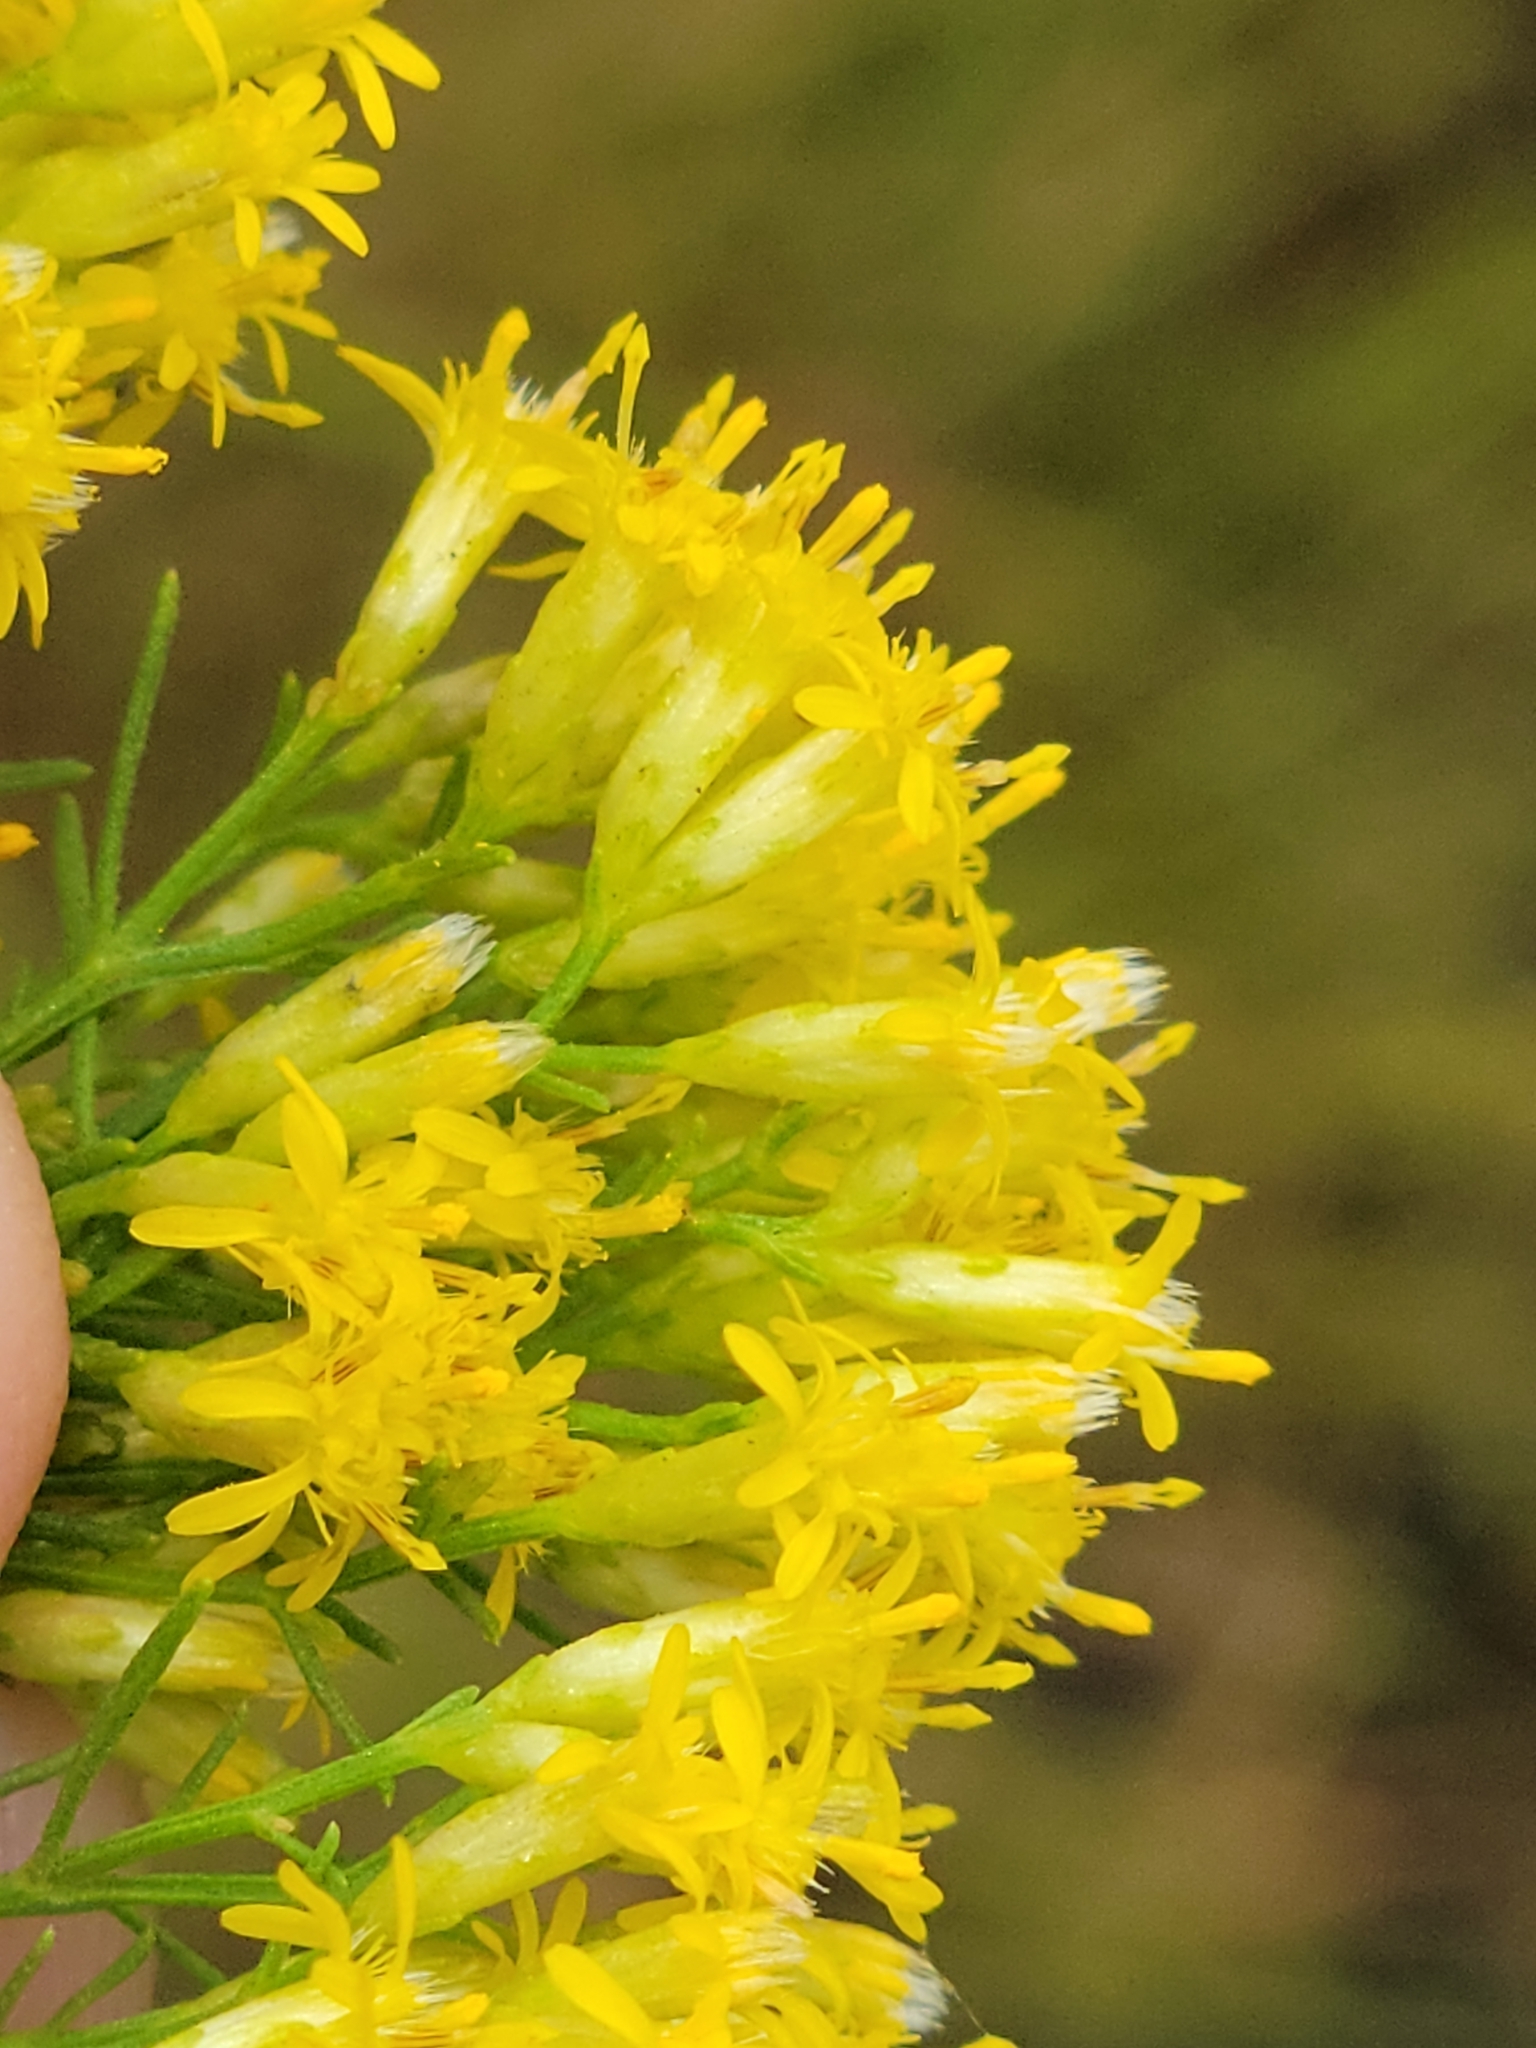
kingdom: Plantae
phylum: Tracheophyta
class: Magnoliopsida
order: Asterales
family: Asteraceae
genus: Euthamia
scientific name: Euthamia caroliniana
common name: Coastal plain goldentop
